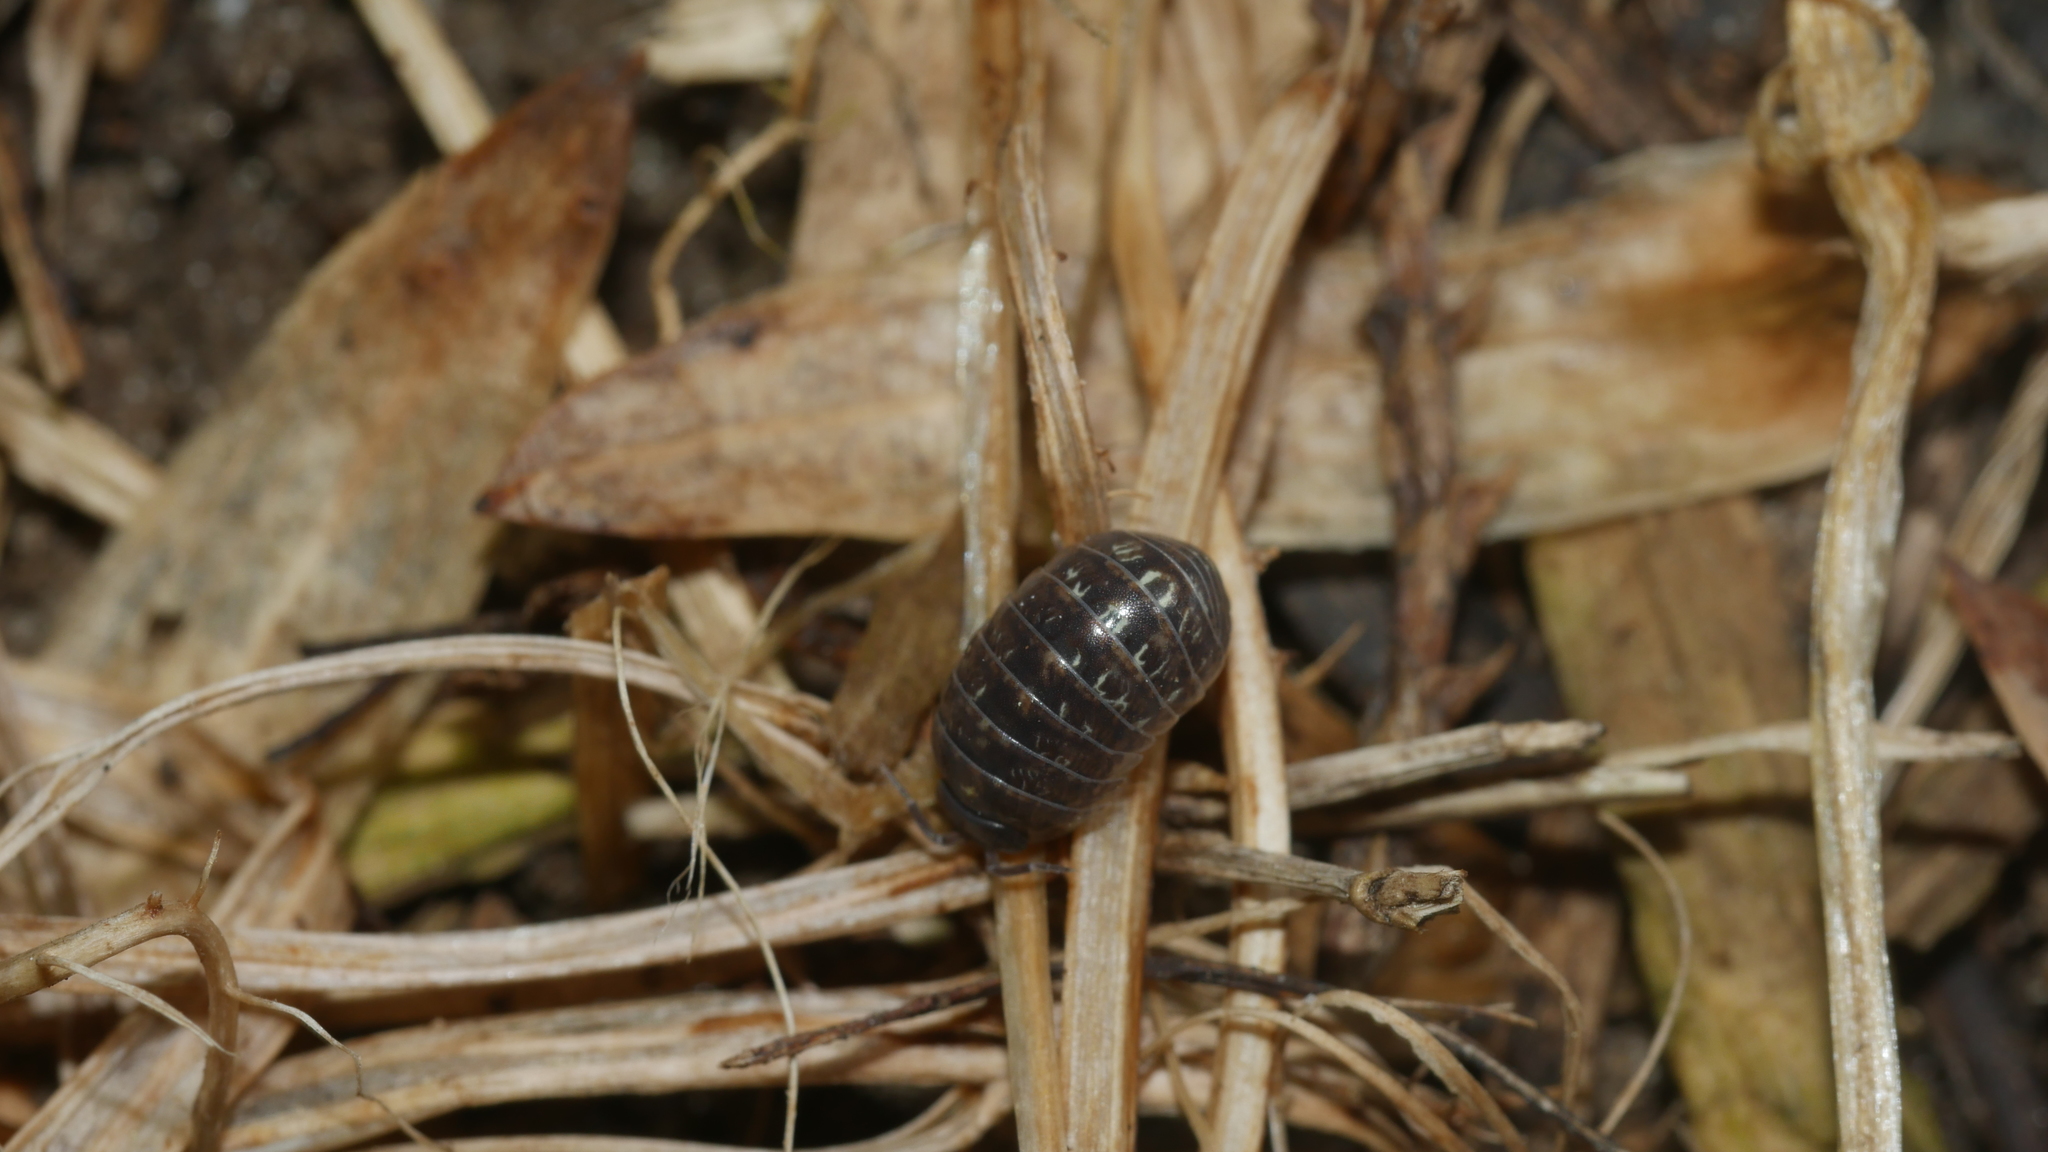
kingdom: Animalia
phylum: Arthropoda
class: Malacostraca
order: Isopoda
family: Armadillidiidae
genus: Armadillidium
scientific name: Armadillidium vulgare
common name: Common pill woodlouse
